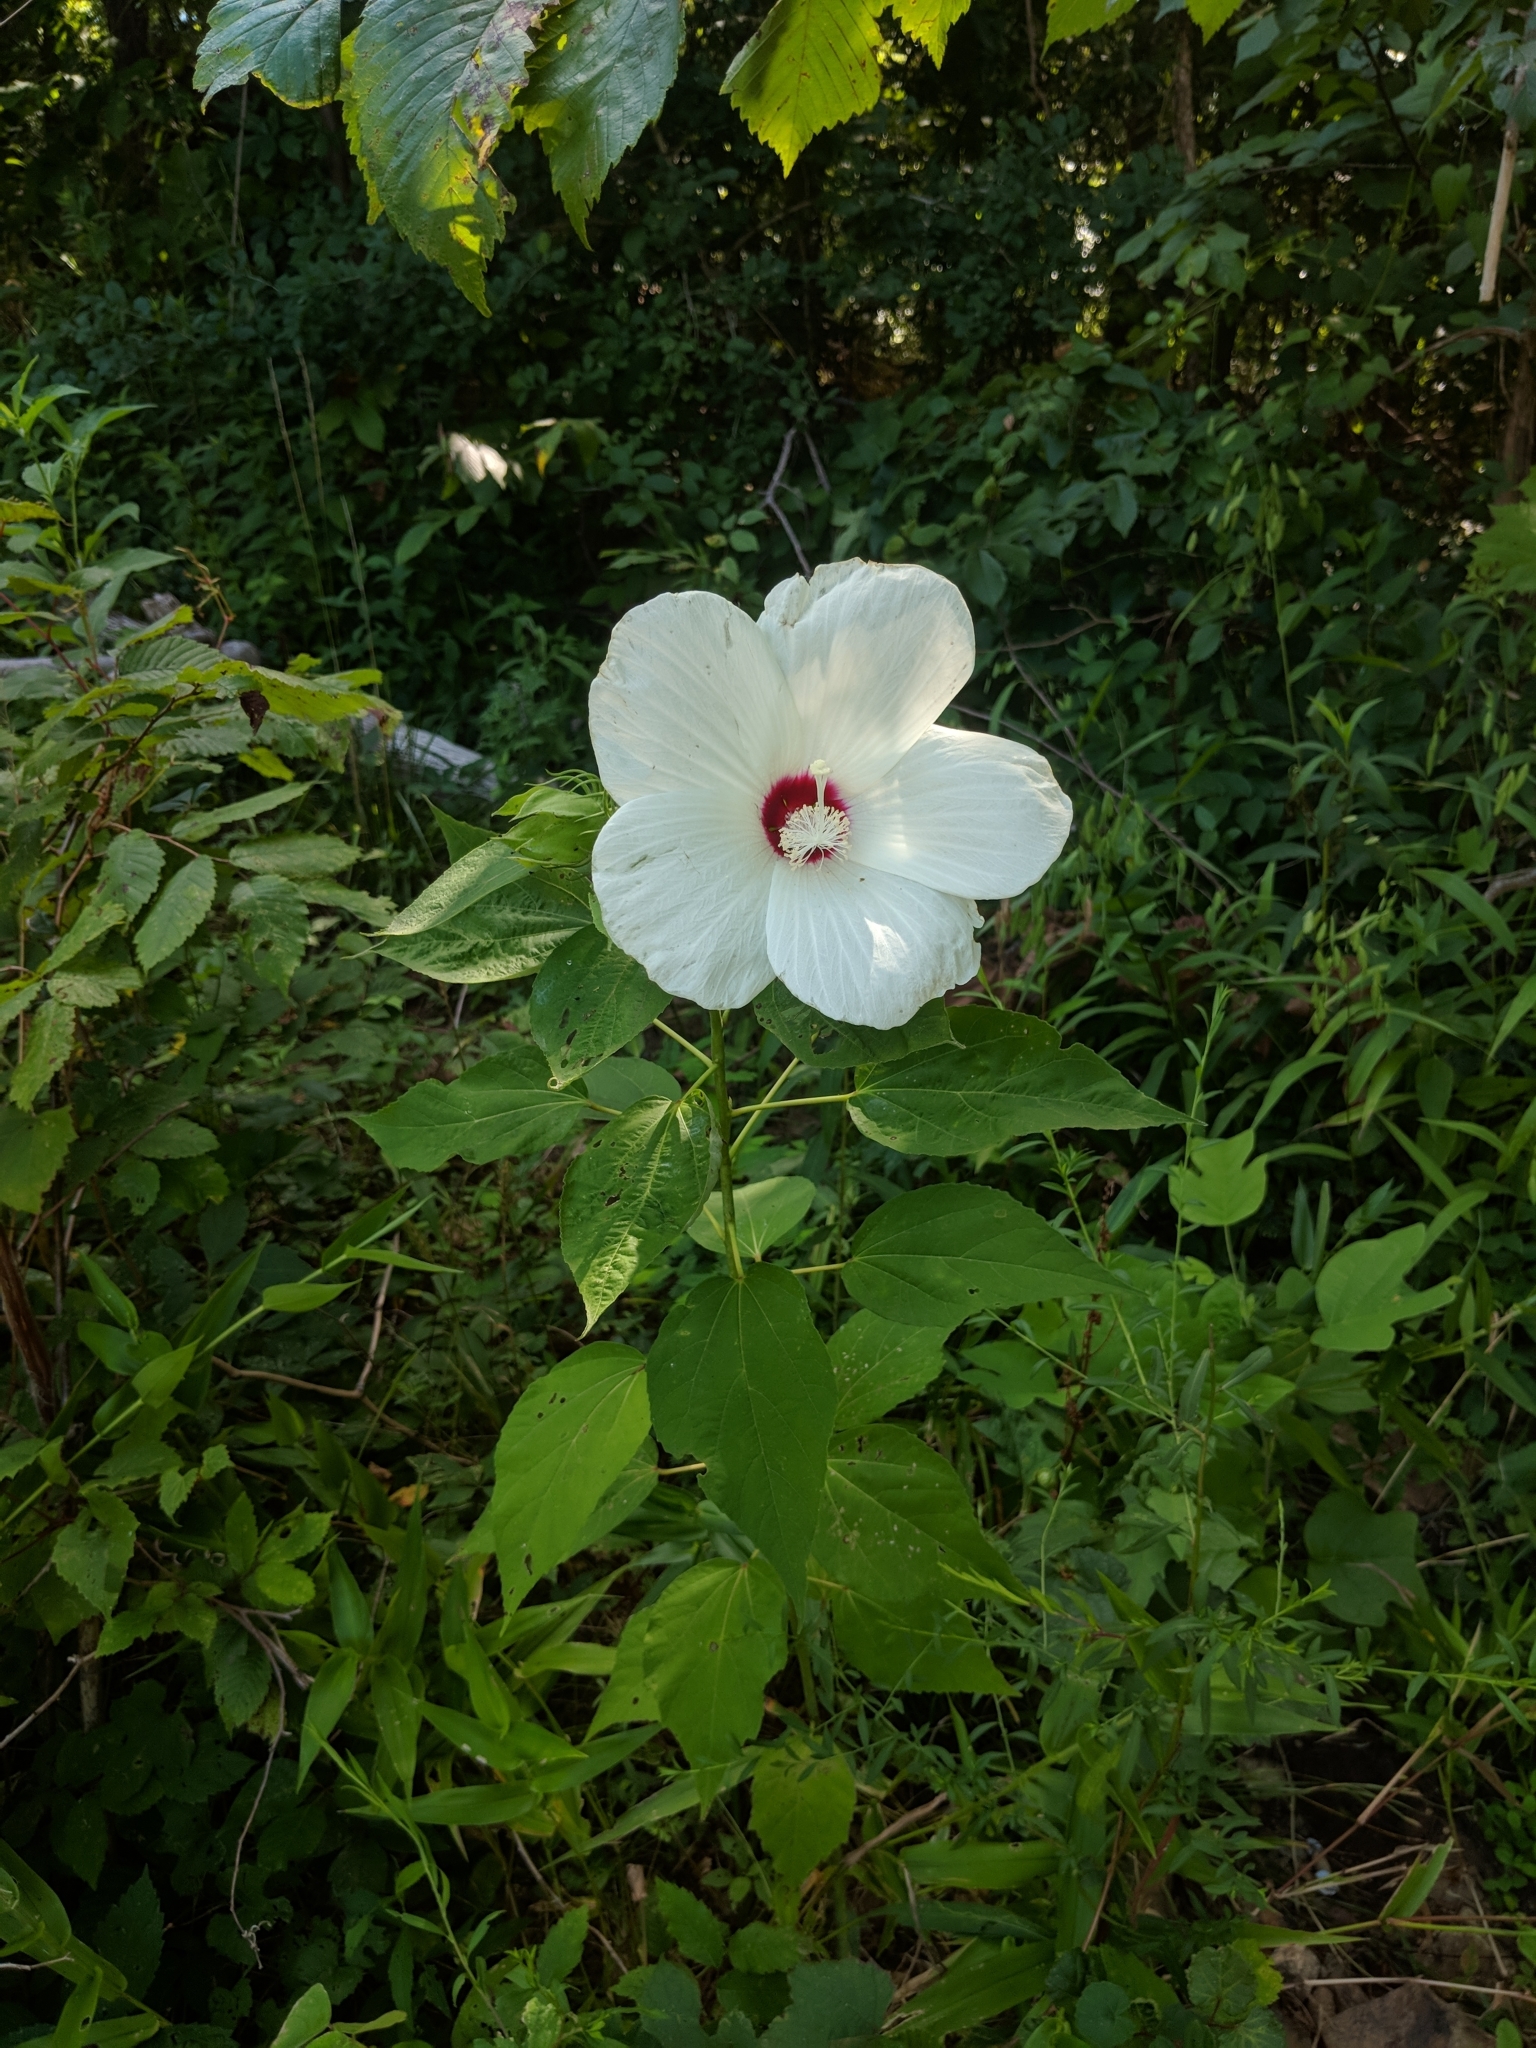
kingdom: Plantae
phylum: Tracheophyta
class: Magnoliopsida
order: Malvales
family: Malvaceae
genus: Hibiscus
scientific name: Hibiscus moscheutos
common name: Common rose-mallow
